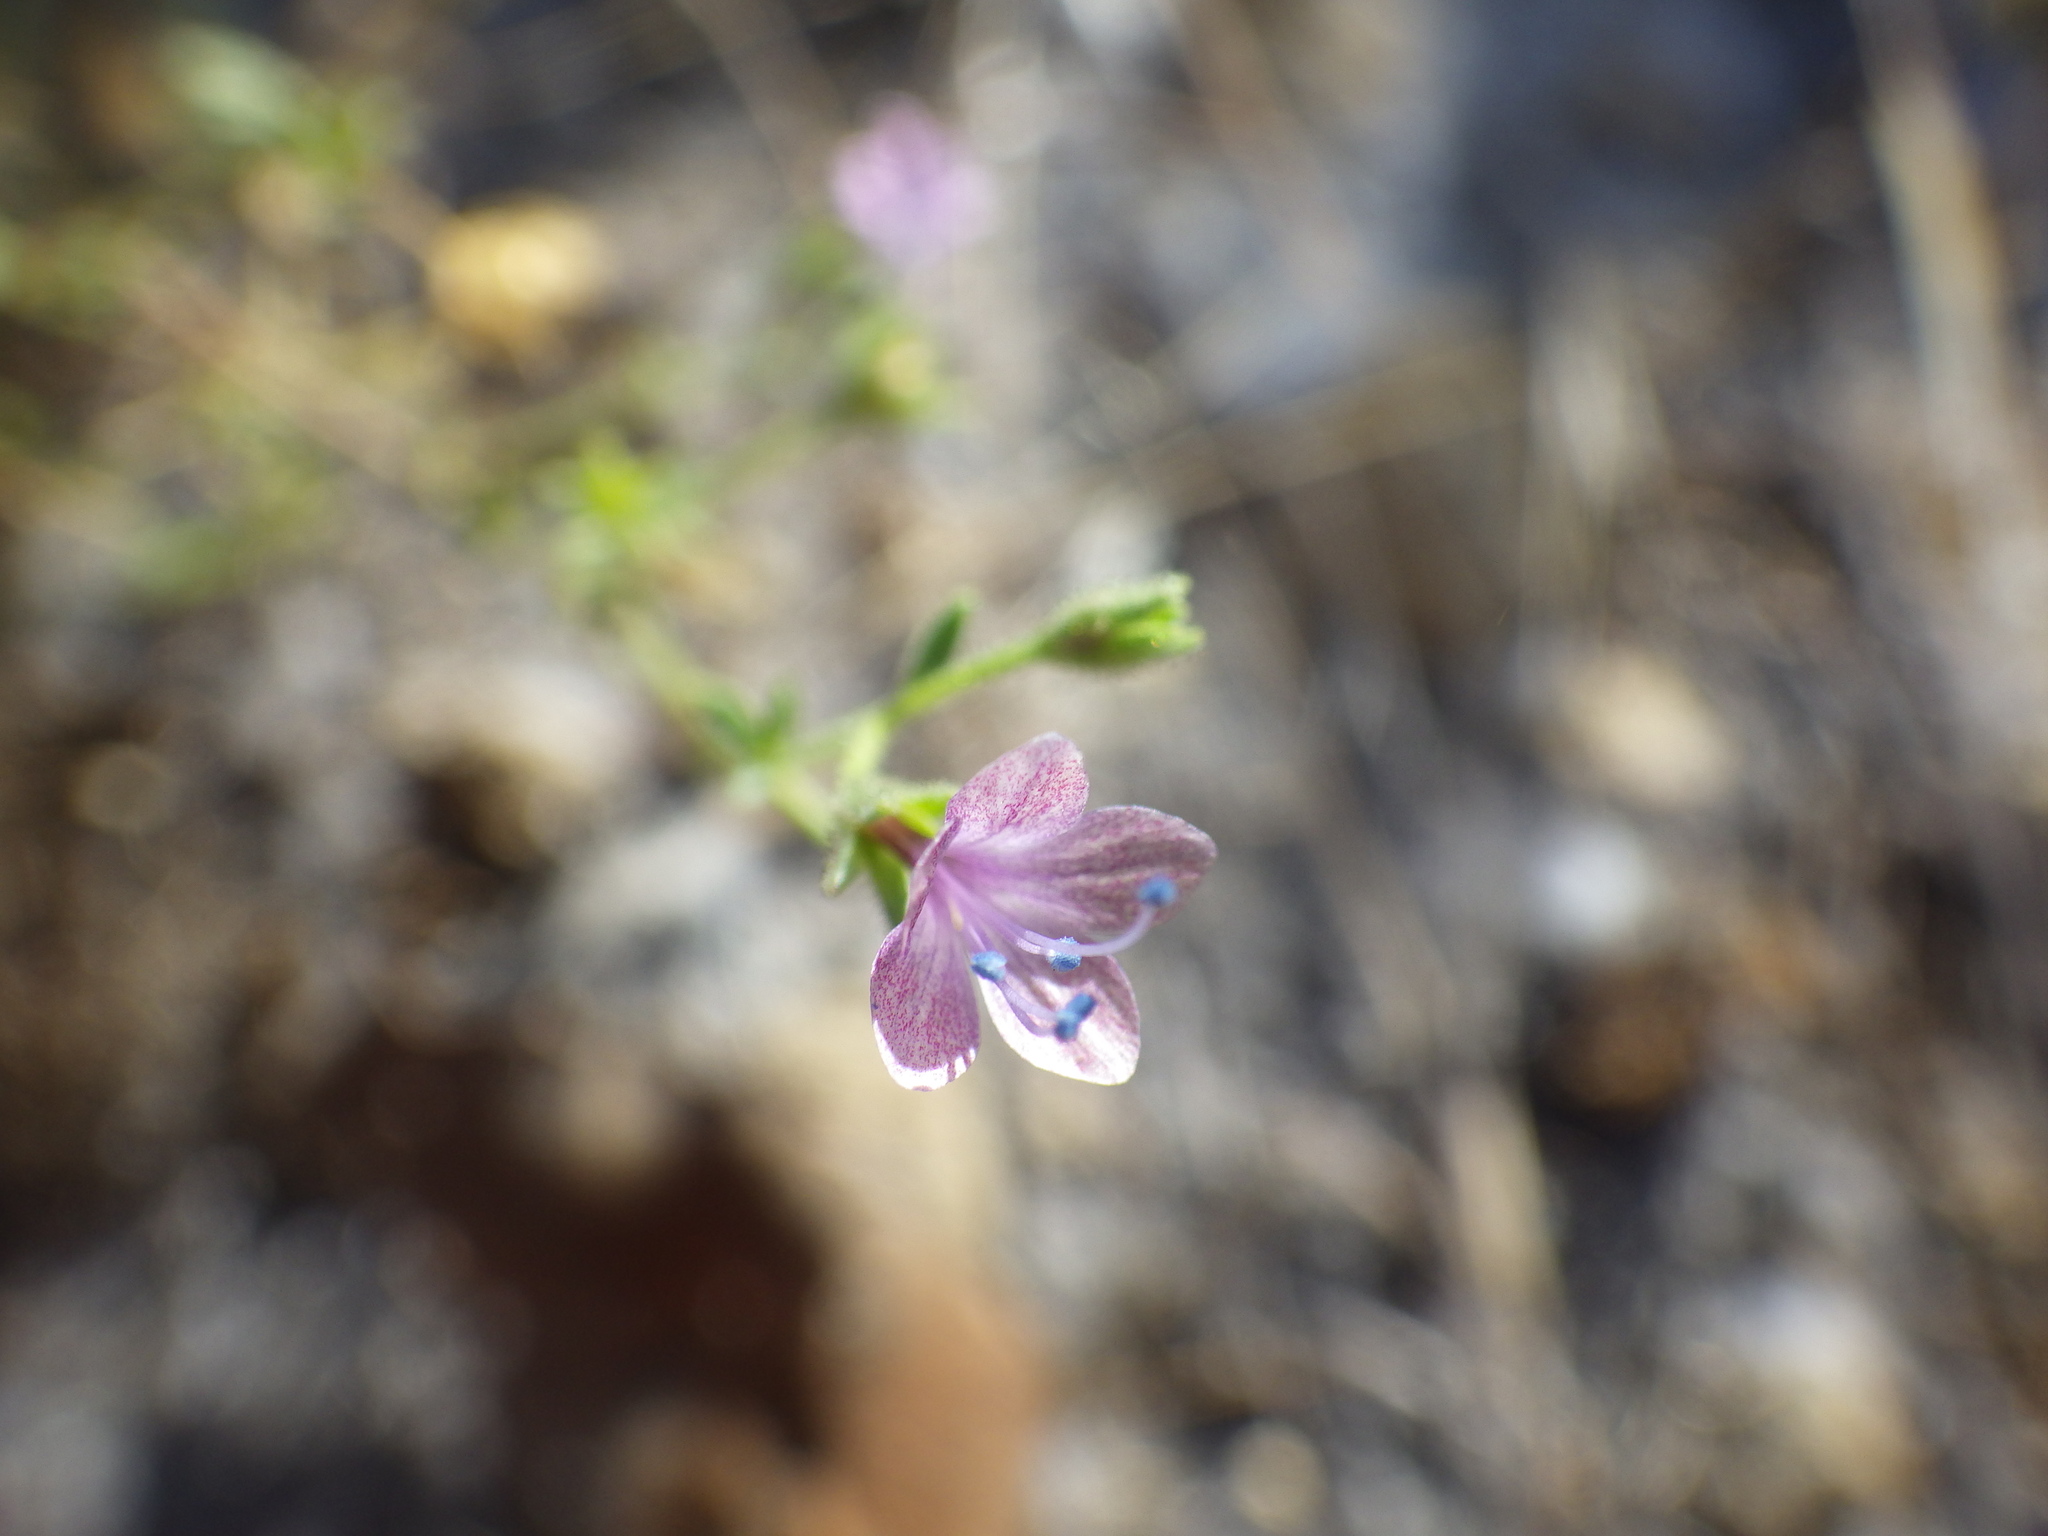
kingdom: Plantae
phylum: Tracheophyta
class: Magnoliopsida
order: Ericales
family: Polemoniaceae
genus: Allophyllum
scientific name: Allophyllum glutinosum
